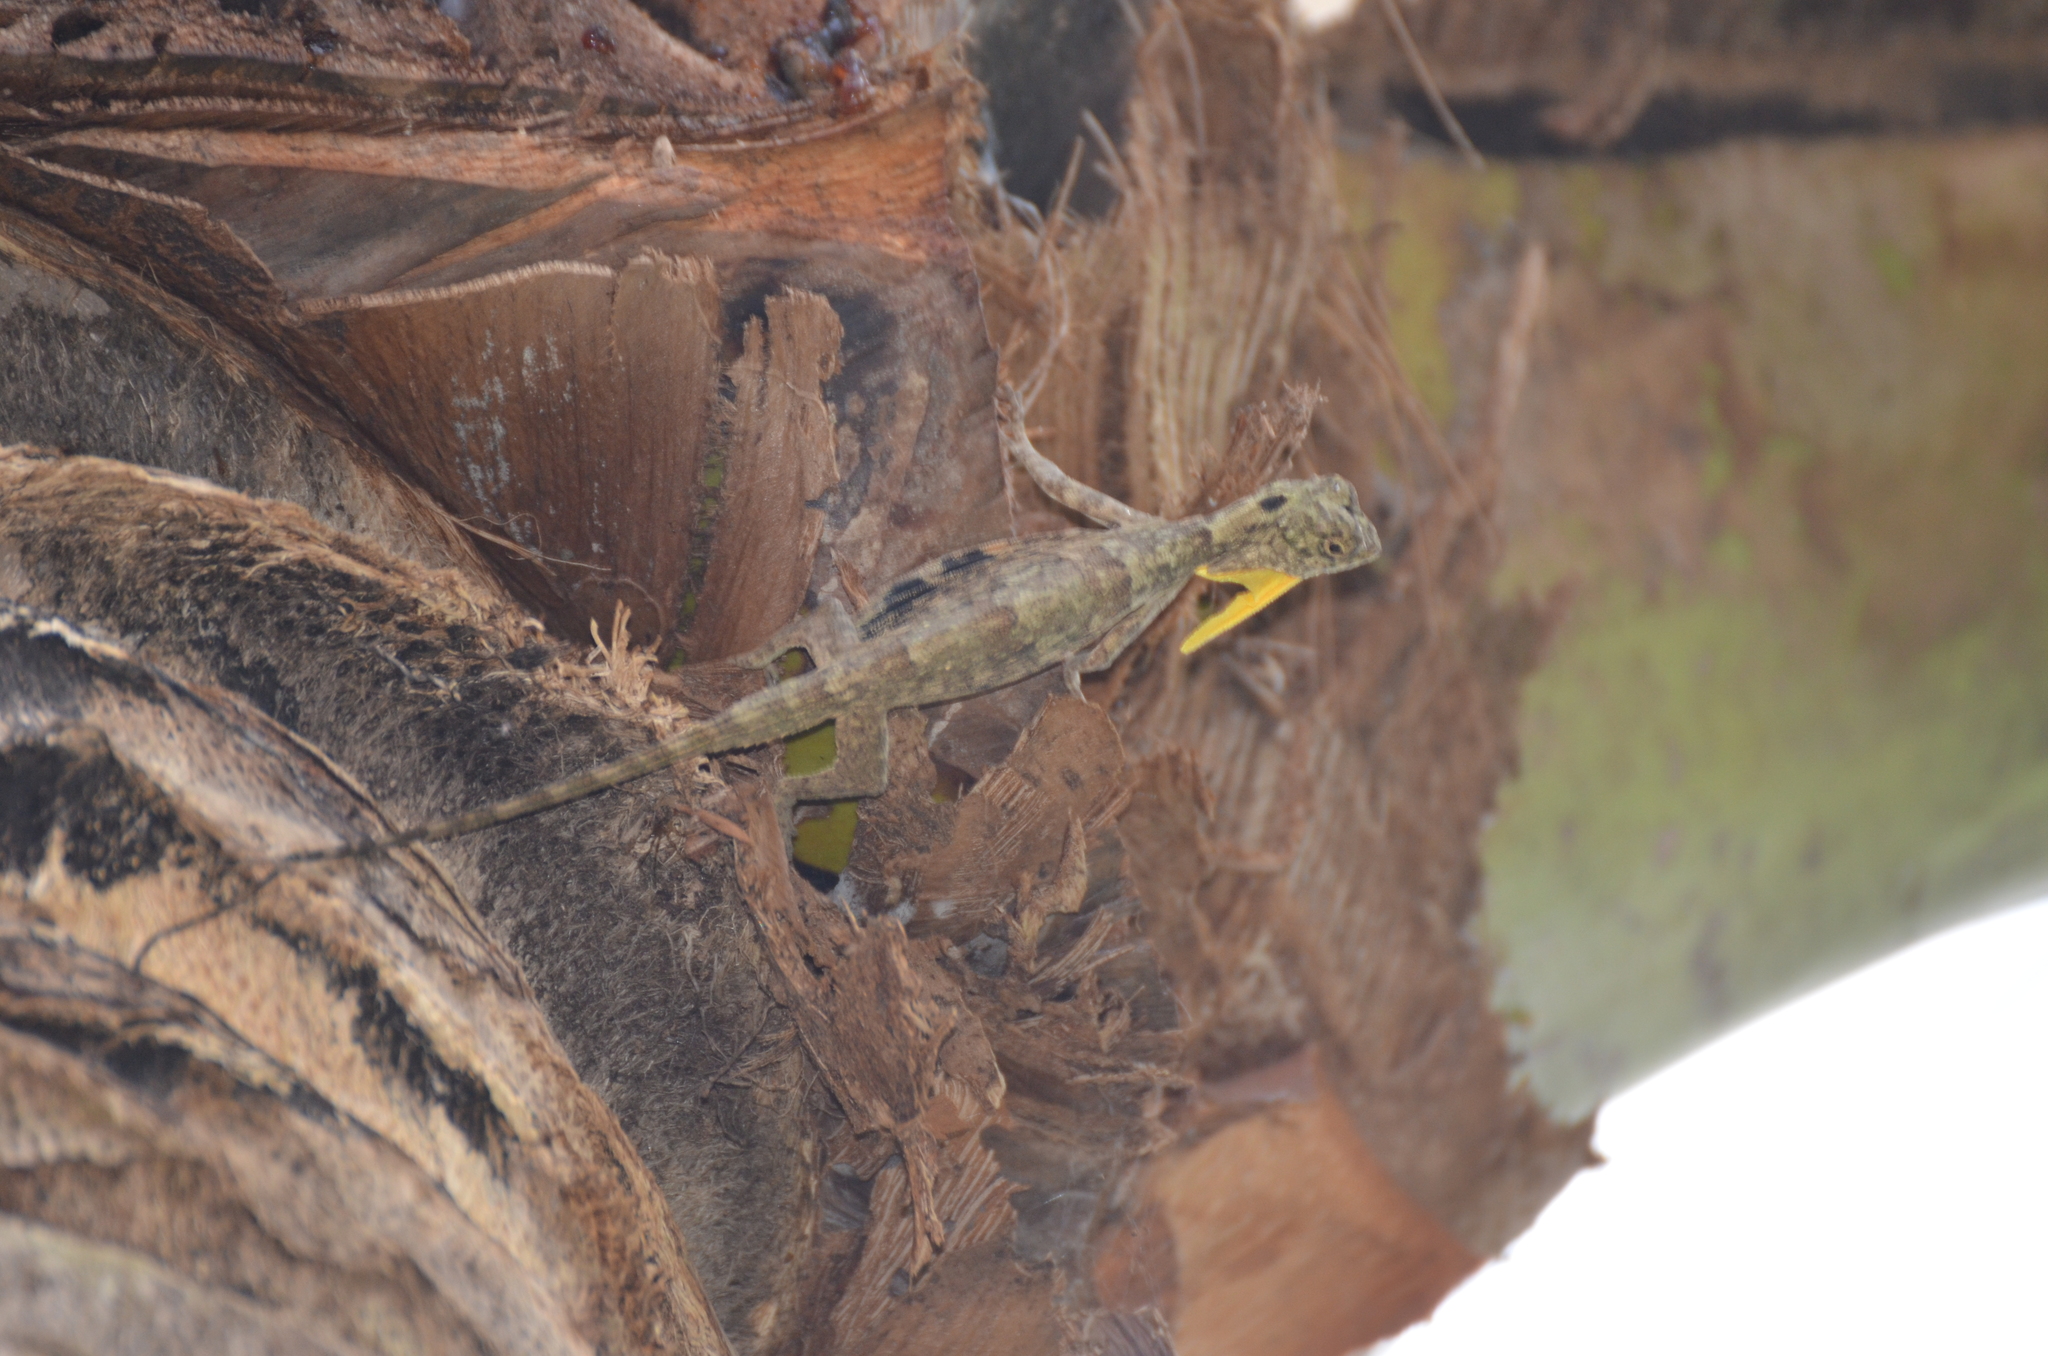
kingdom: Animalia
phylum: Chordata
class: Squamata
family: Agamidae
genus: Draco
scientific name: Draco volans
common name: Common flying dragon
